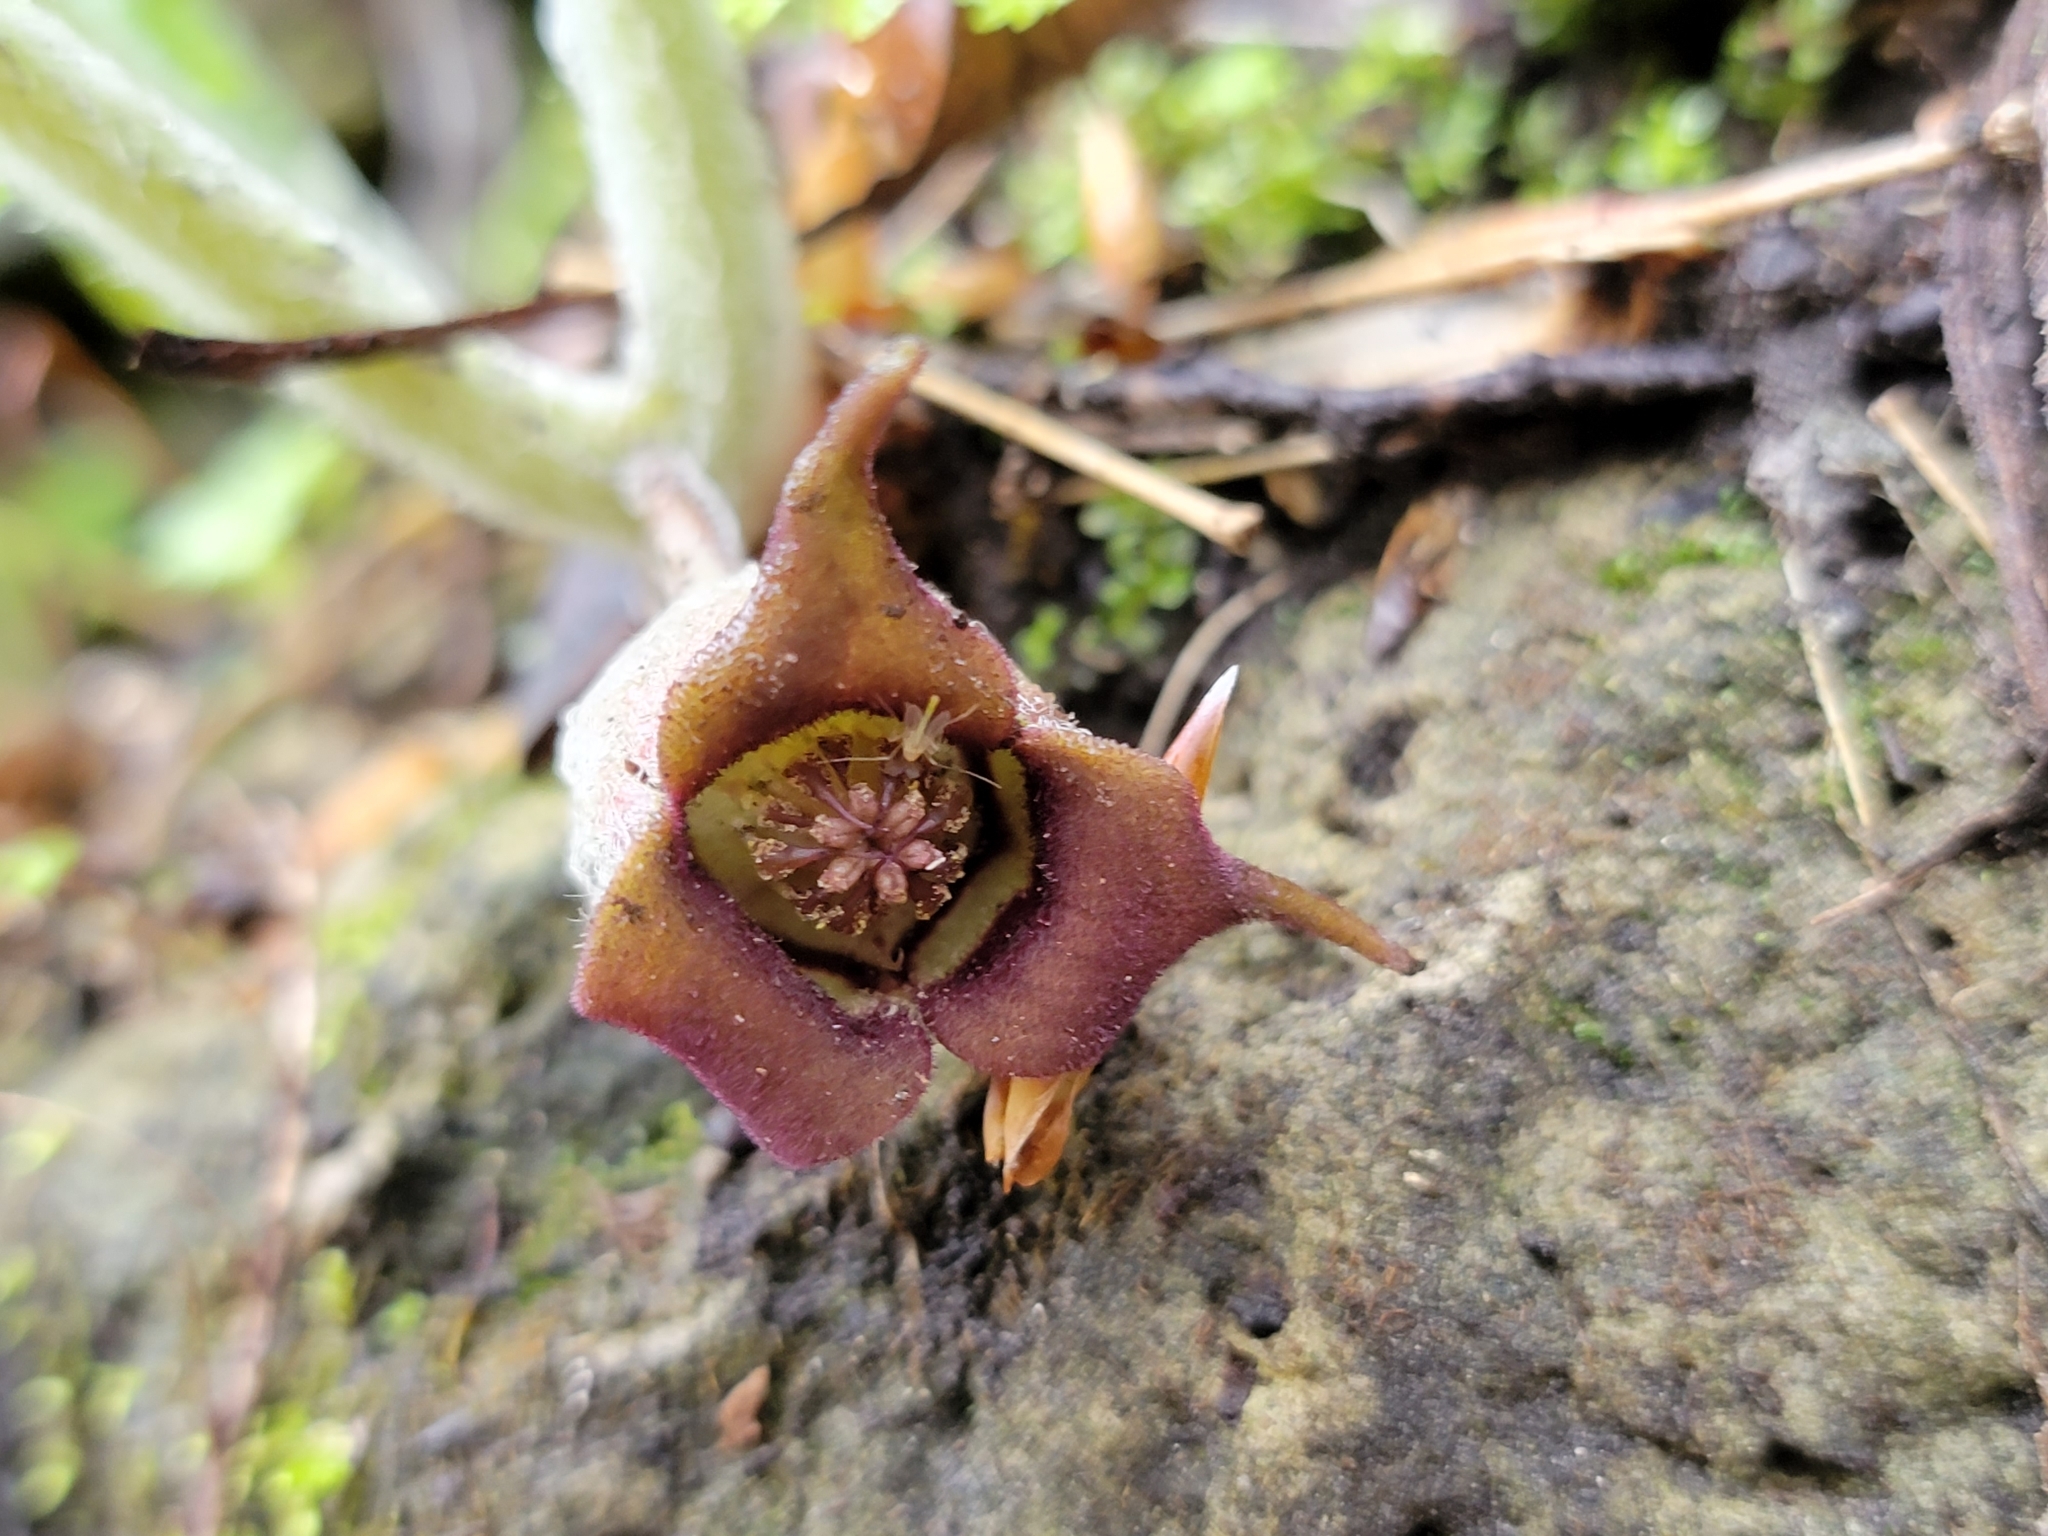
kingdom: Plantae
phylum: Tracheophyta
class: Magnoliopsida
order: Piperales
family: Aristolochiaceae
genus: Asarum
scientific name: Asarum canadense
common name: Wild ginger
